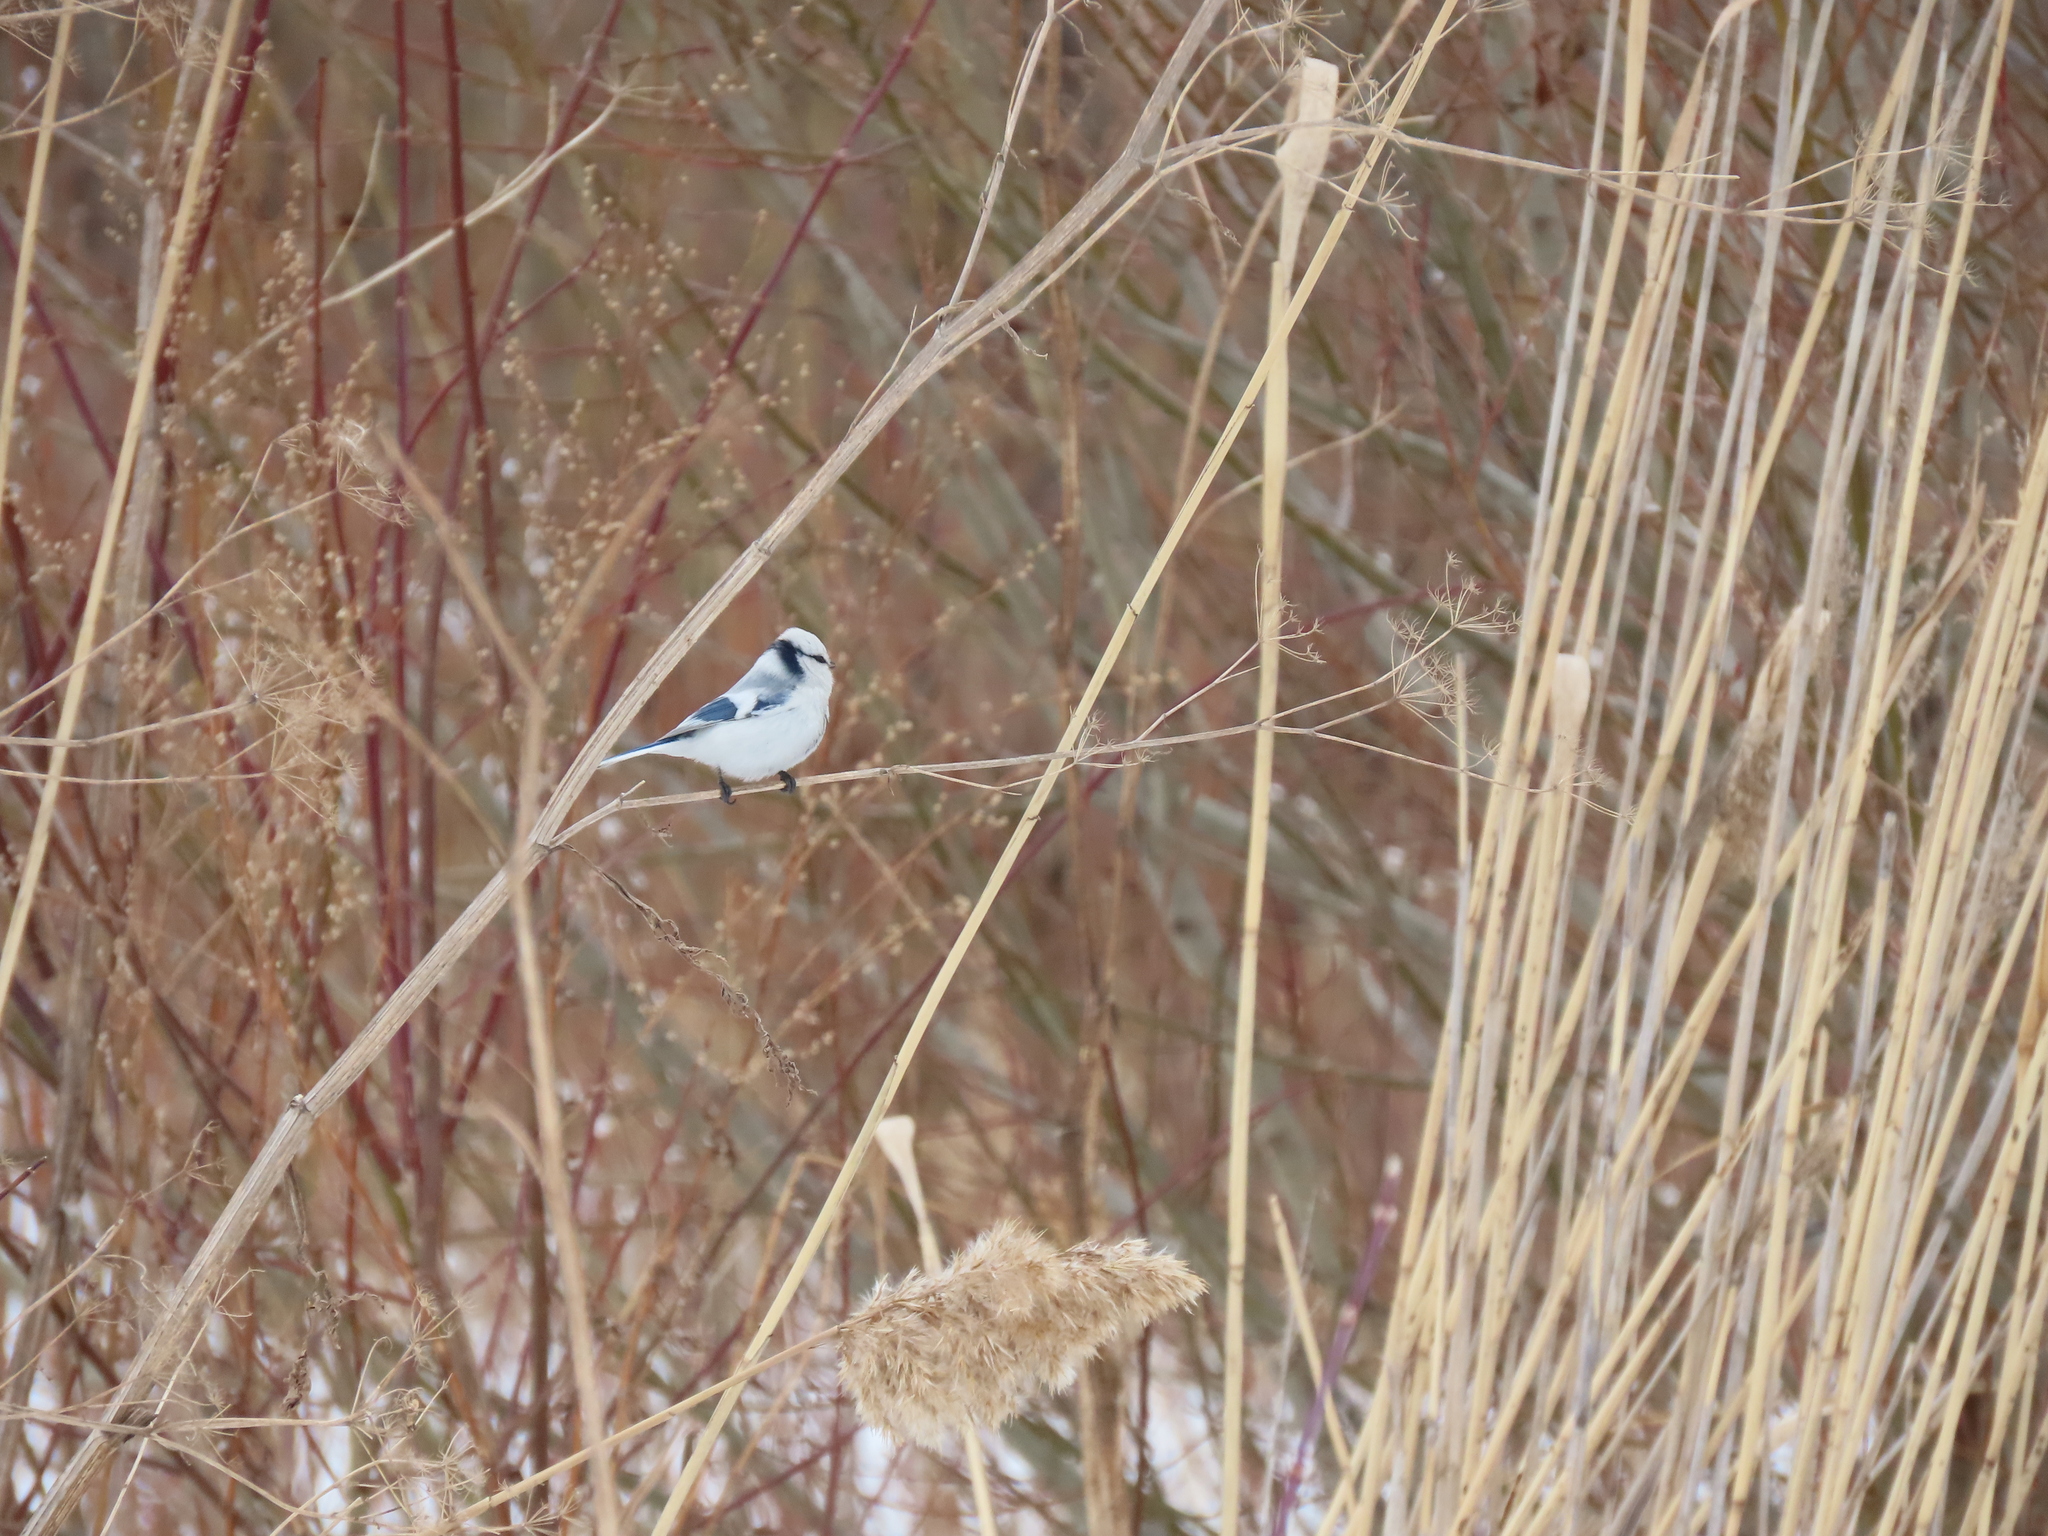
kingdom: Animalia
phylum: Chordata
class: Aves
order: Passeriformes
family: Paridae
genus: Cyanistes
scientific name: Cyanistes cyanus
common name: Azure tit
